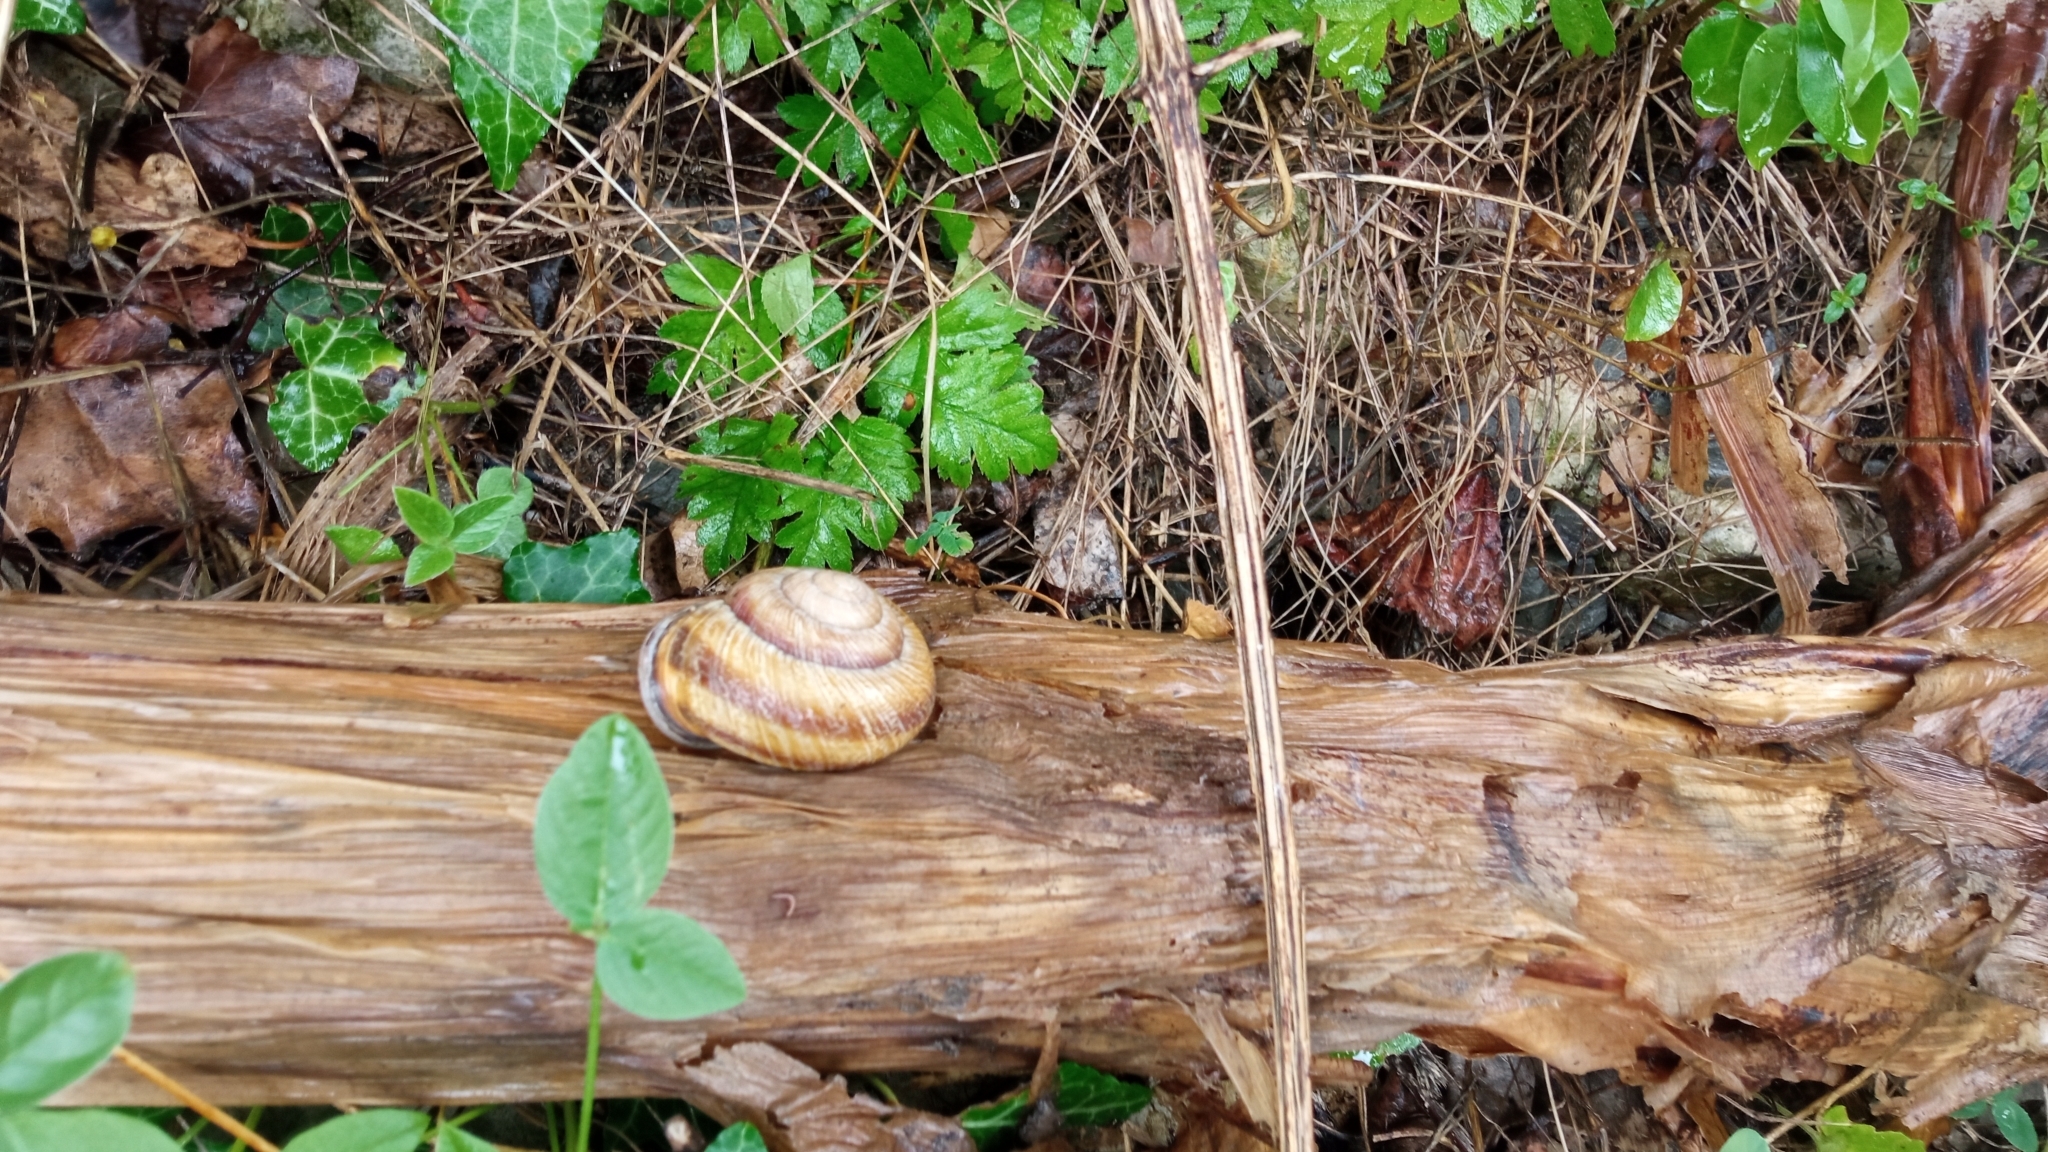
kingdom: Animalia
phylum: Mollusca
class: Gastropoda
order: Stylommatophora
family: Helicidae
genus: Caucasotachea
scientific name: Caucasotachea atrolabiata
